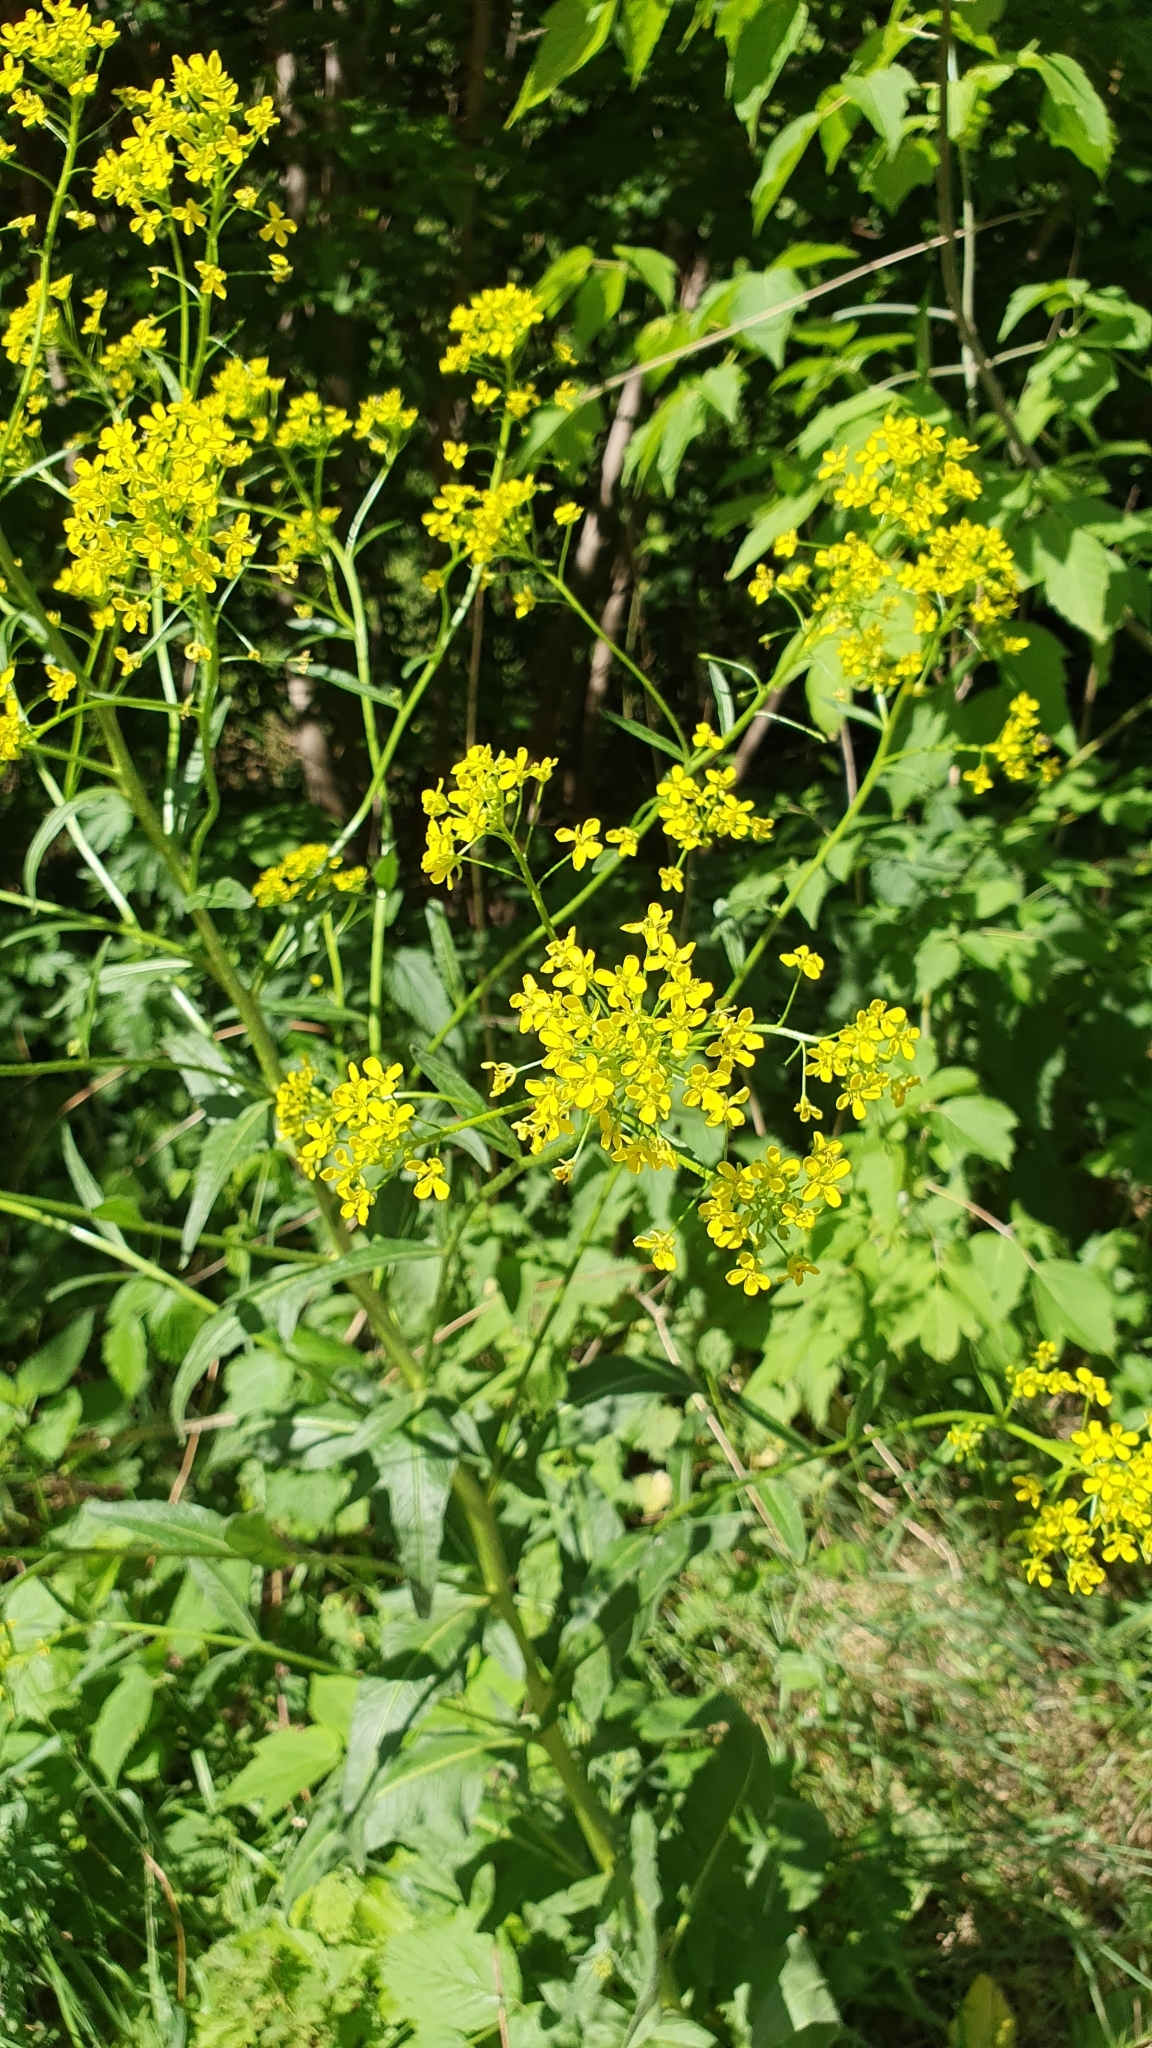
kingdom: Plantae
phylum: Tracheophyta
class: Magnoliopsida
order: Brassicales
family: Brassicaceae
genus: Bunias
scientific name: Bunias orientalis
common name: Warty-cabbage
